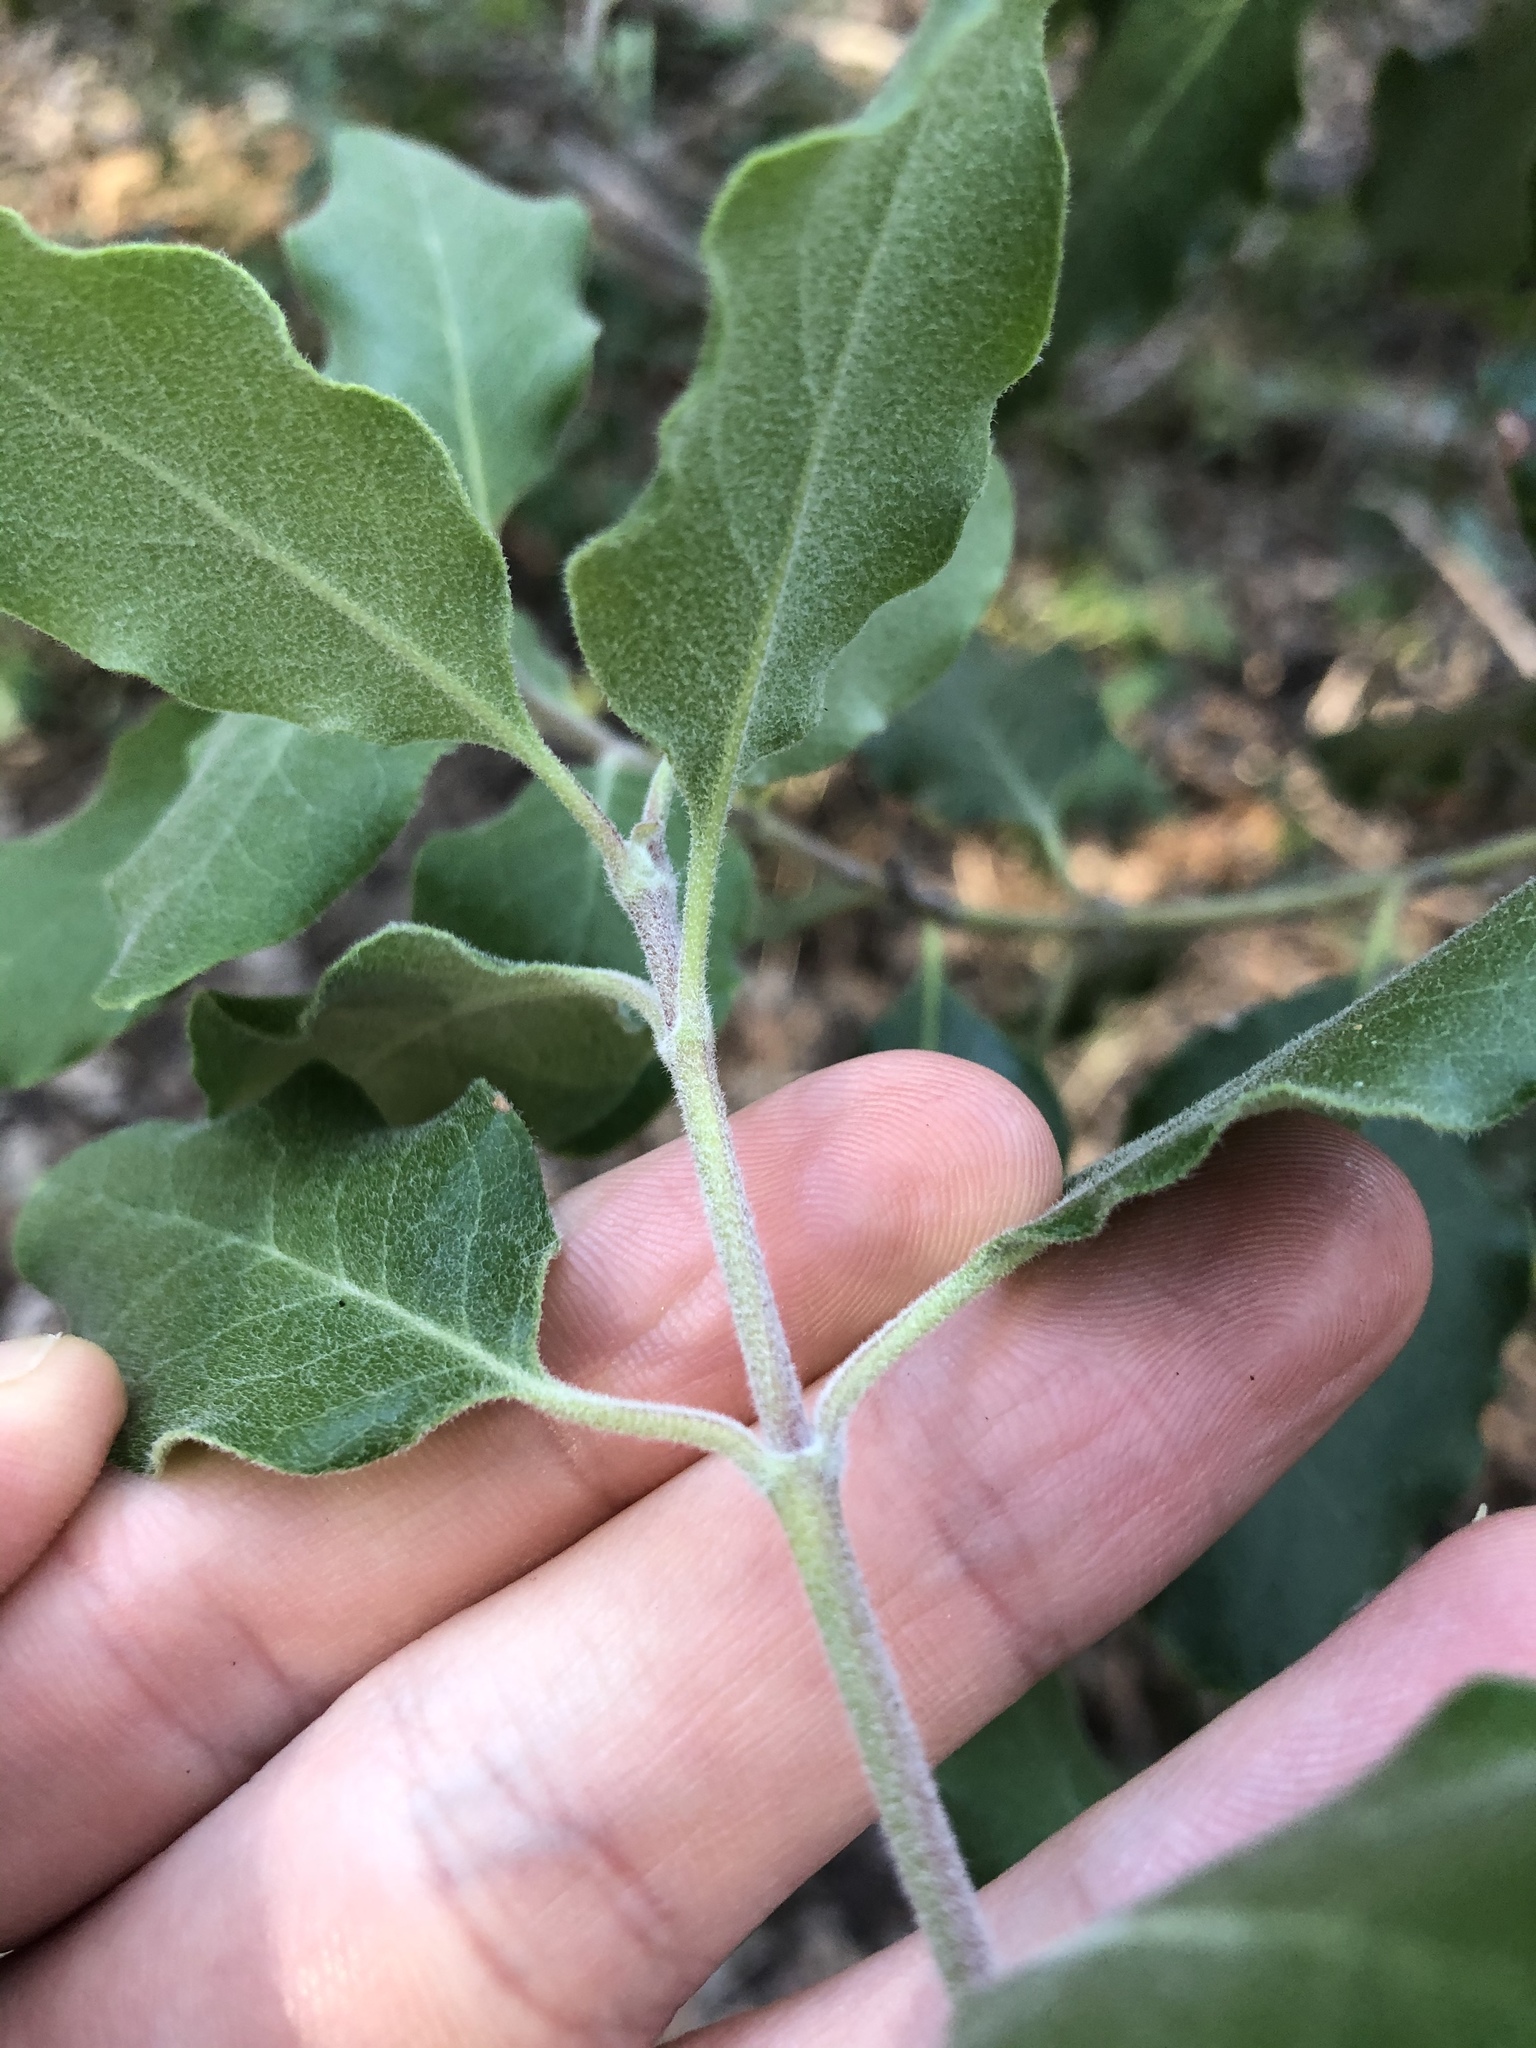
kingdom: Plantae
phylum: Tracheophyta
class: Magnoliopsida
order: Garryales
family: Garryaceae
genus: Garrya
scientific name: Garrya lindheimeri
